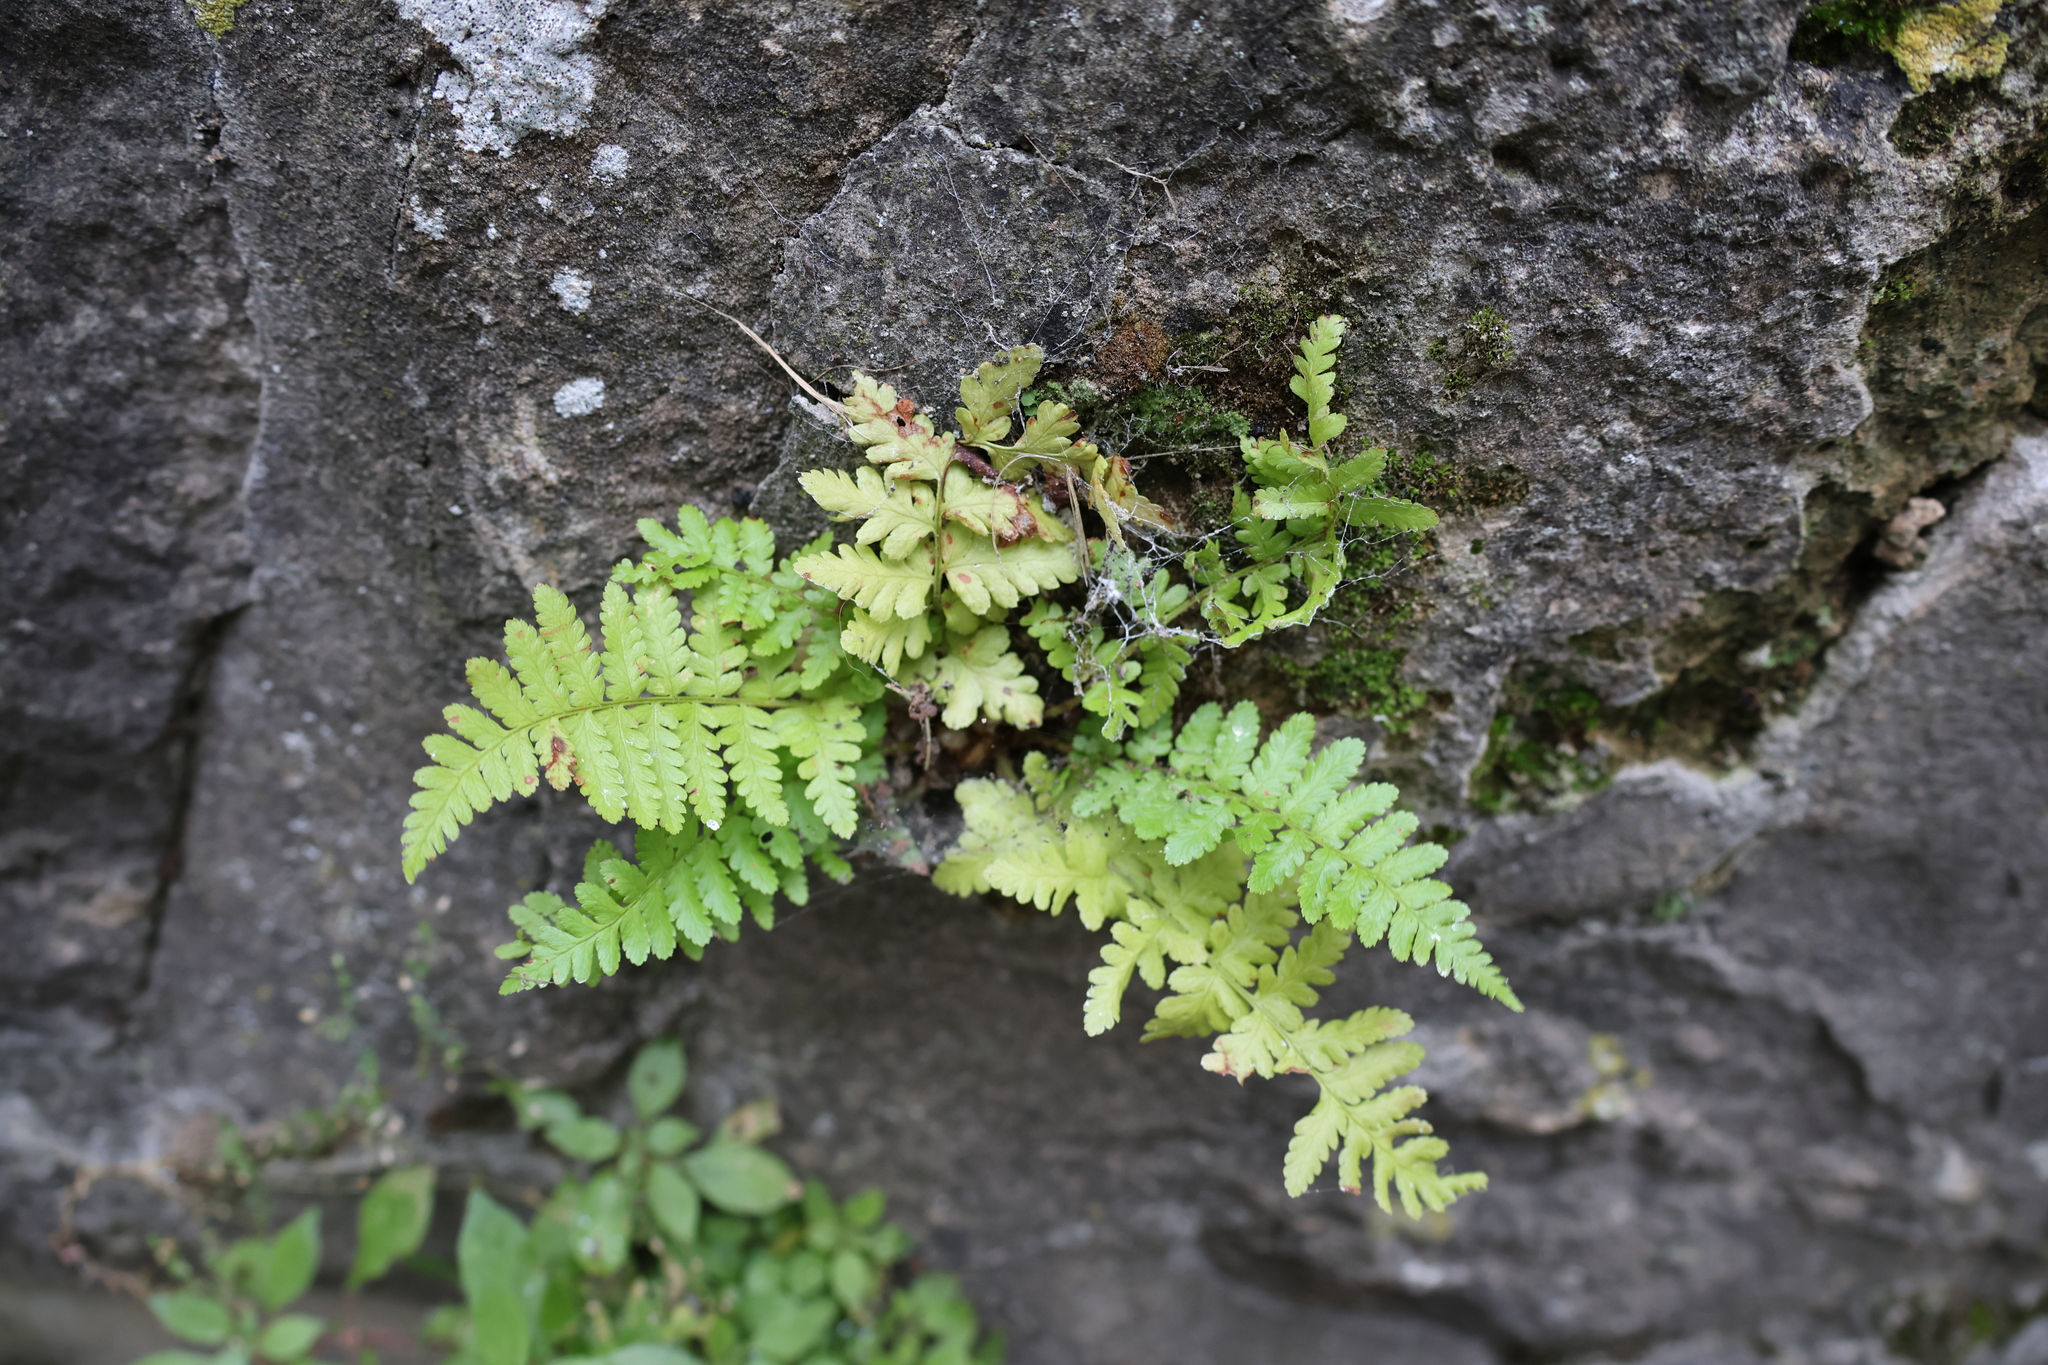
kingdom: Plantae
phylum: Tracheophyta
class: Polypodiopsida
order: Polypodiales
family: Dryopteridaceae
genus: Dryopteris
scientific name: Dryopteris filix-mas
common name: Male fern
